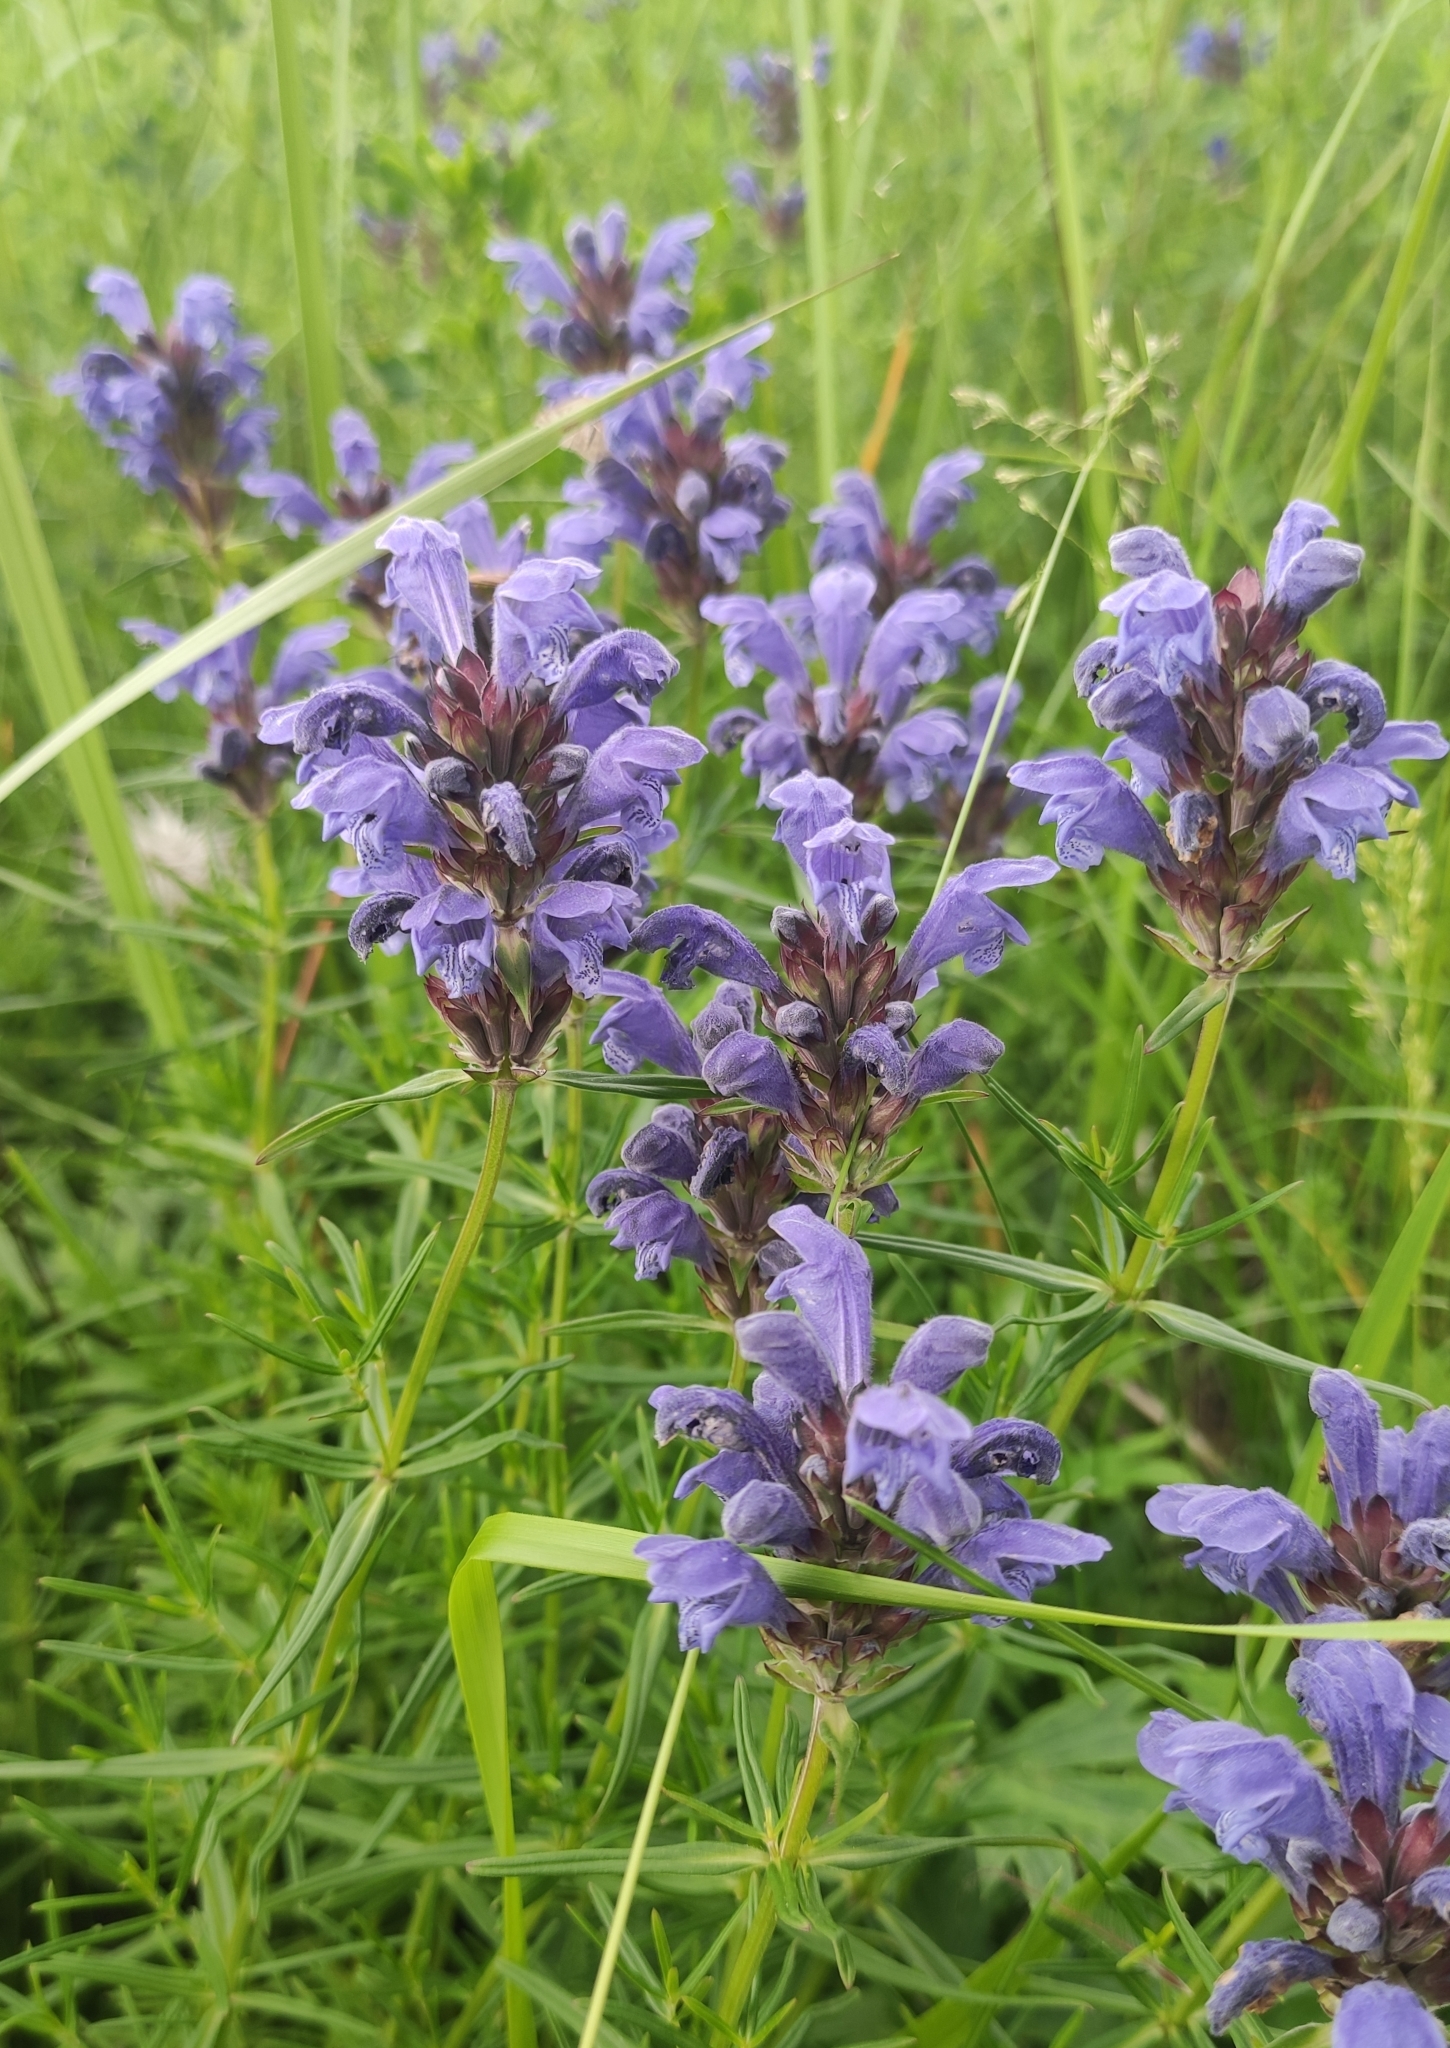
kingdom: Plantae
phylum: Tracheophyta
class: Magnoliopsida
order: Lamiales
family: Lamiaceae
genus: Dracocephalum
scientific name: Dracocephalum ruyschiana
